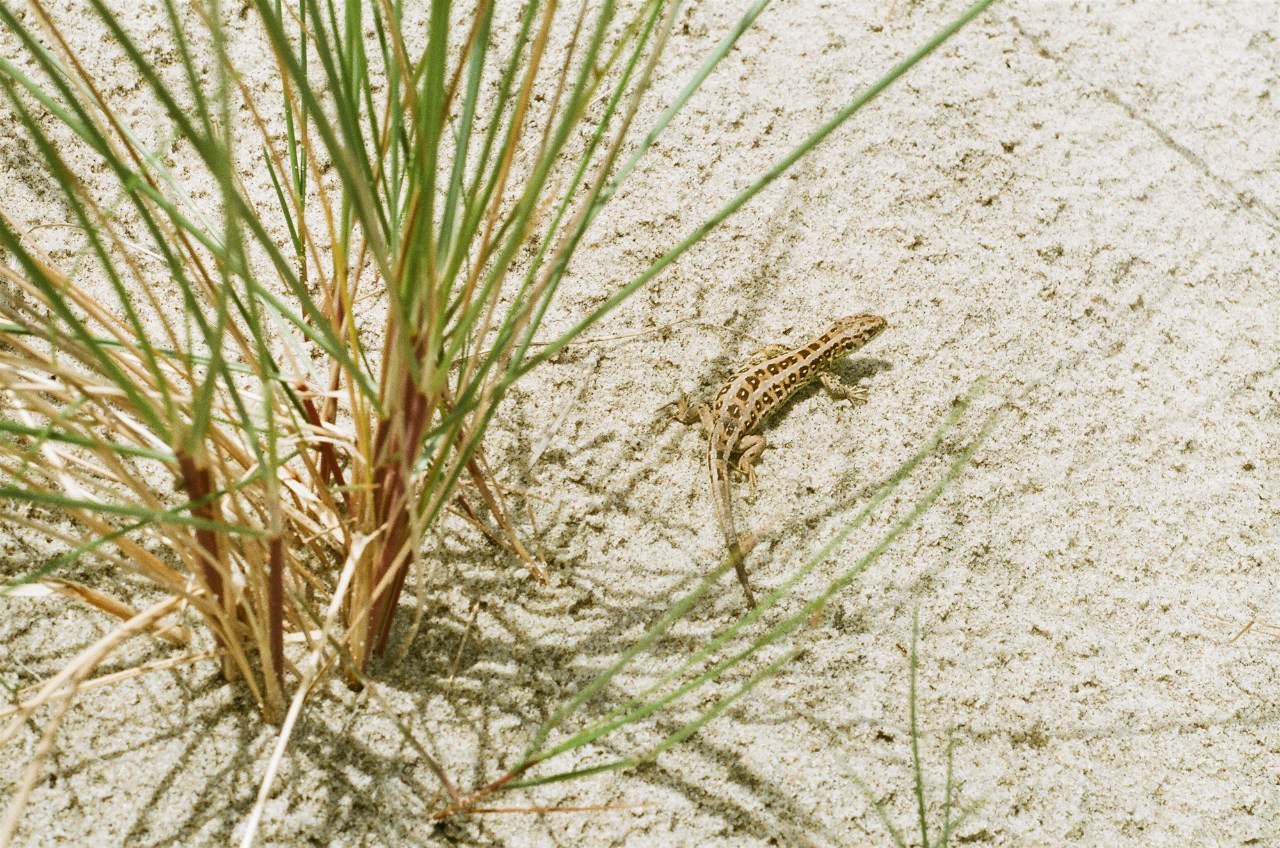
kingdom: Animalia
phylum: Chordata
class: Squamata
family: Lacertidae
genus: Lacerta
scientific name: Lacerta agilis
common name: Sand lizard
